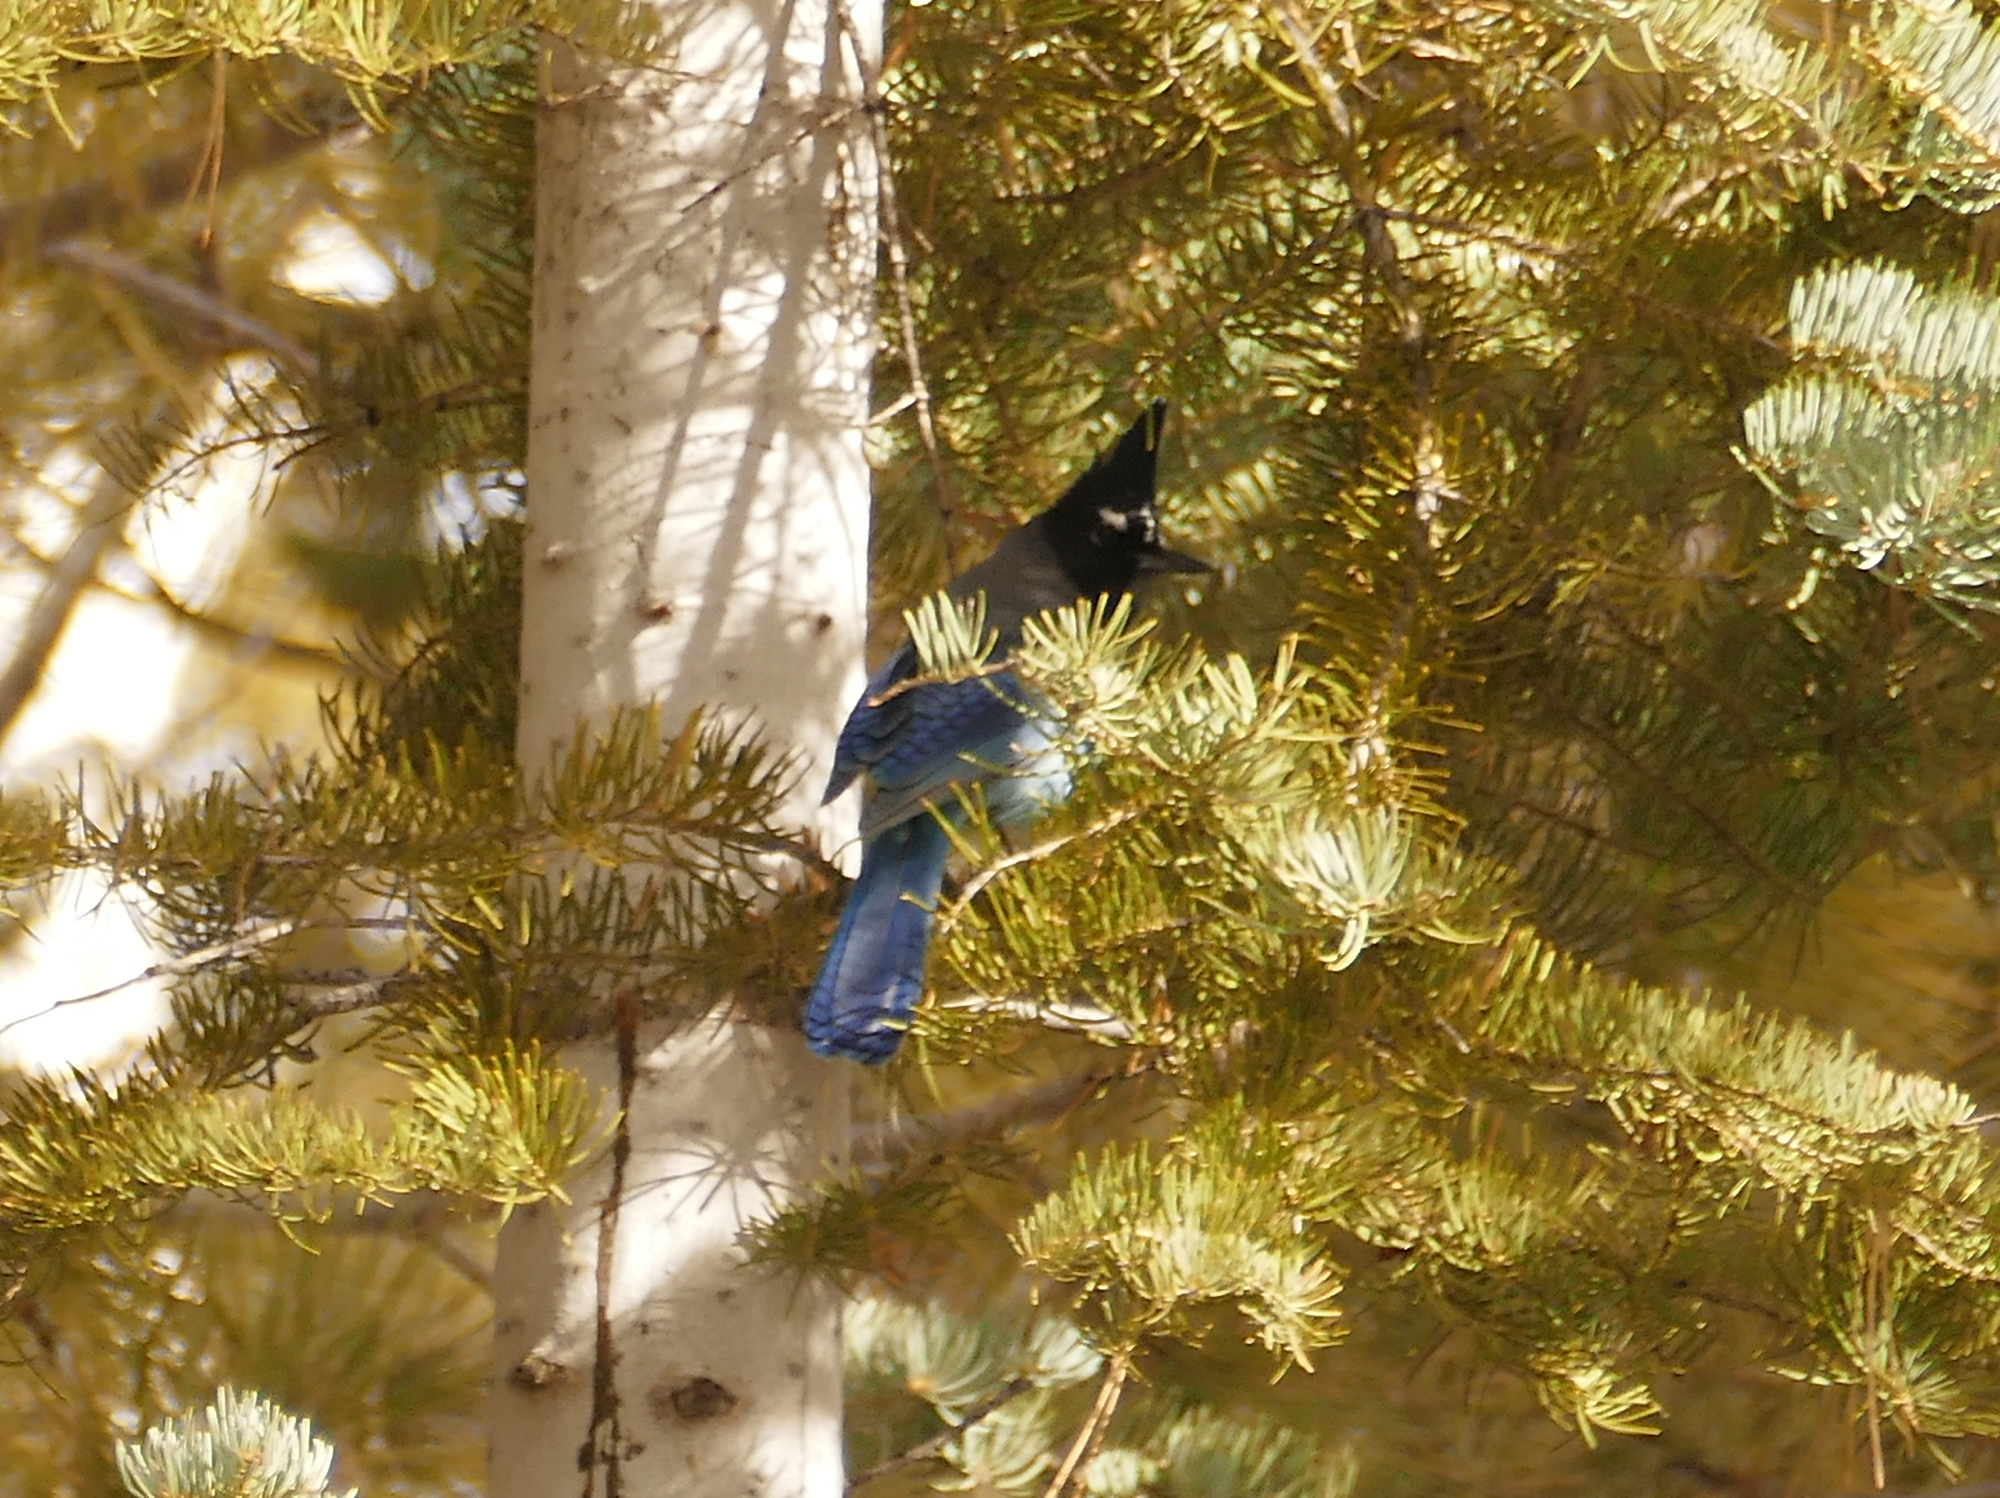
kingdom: Animalia
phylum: Chordata
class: Aves
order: Passeriformes
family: Corvidae
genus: Cyanocitta
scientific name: Cyanocitta stelleri
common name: Steller's jay
